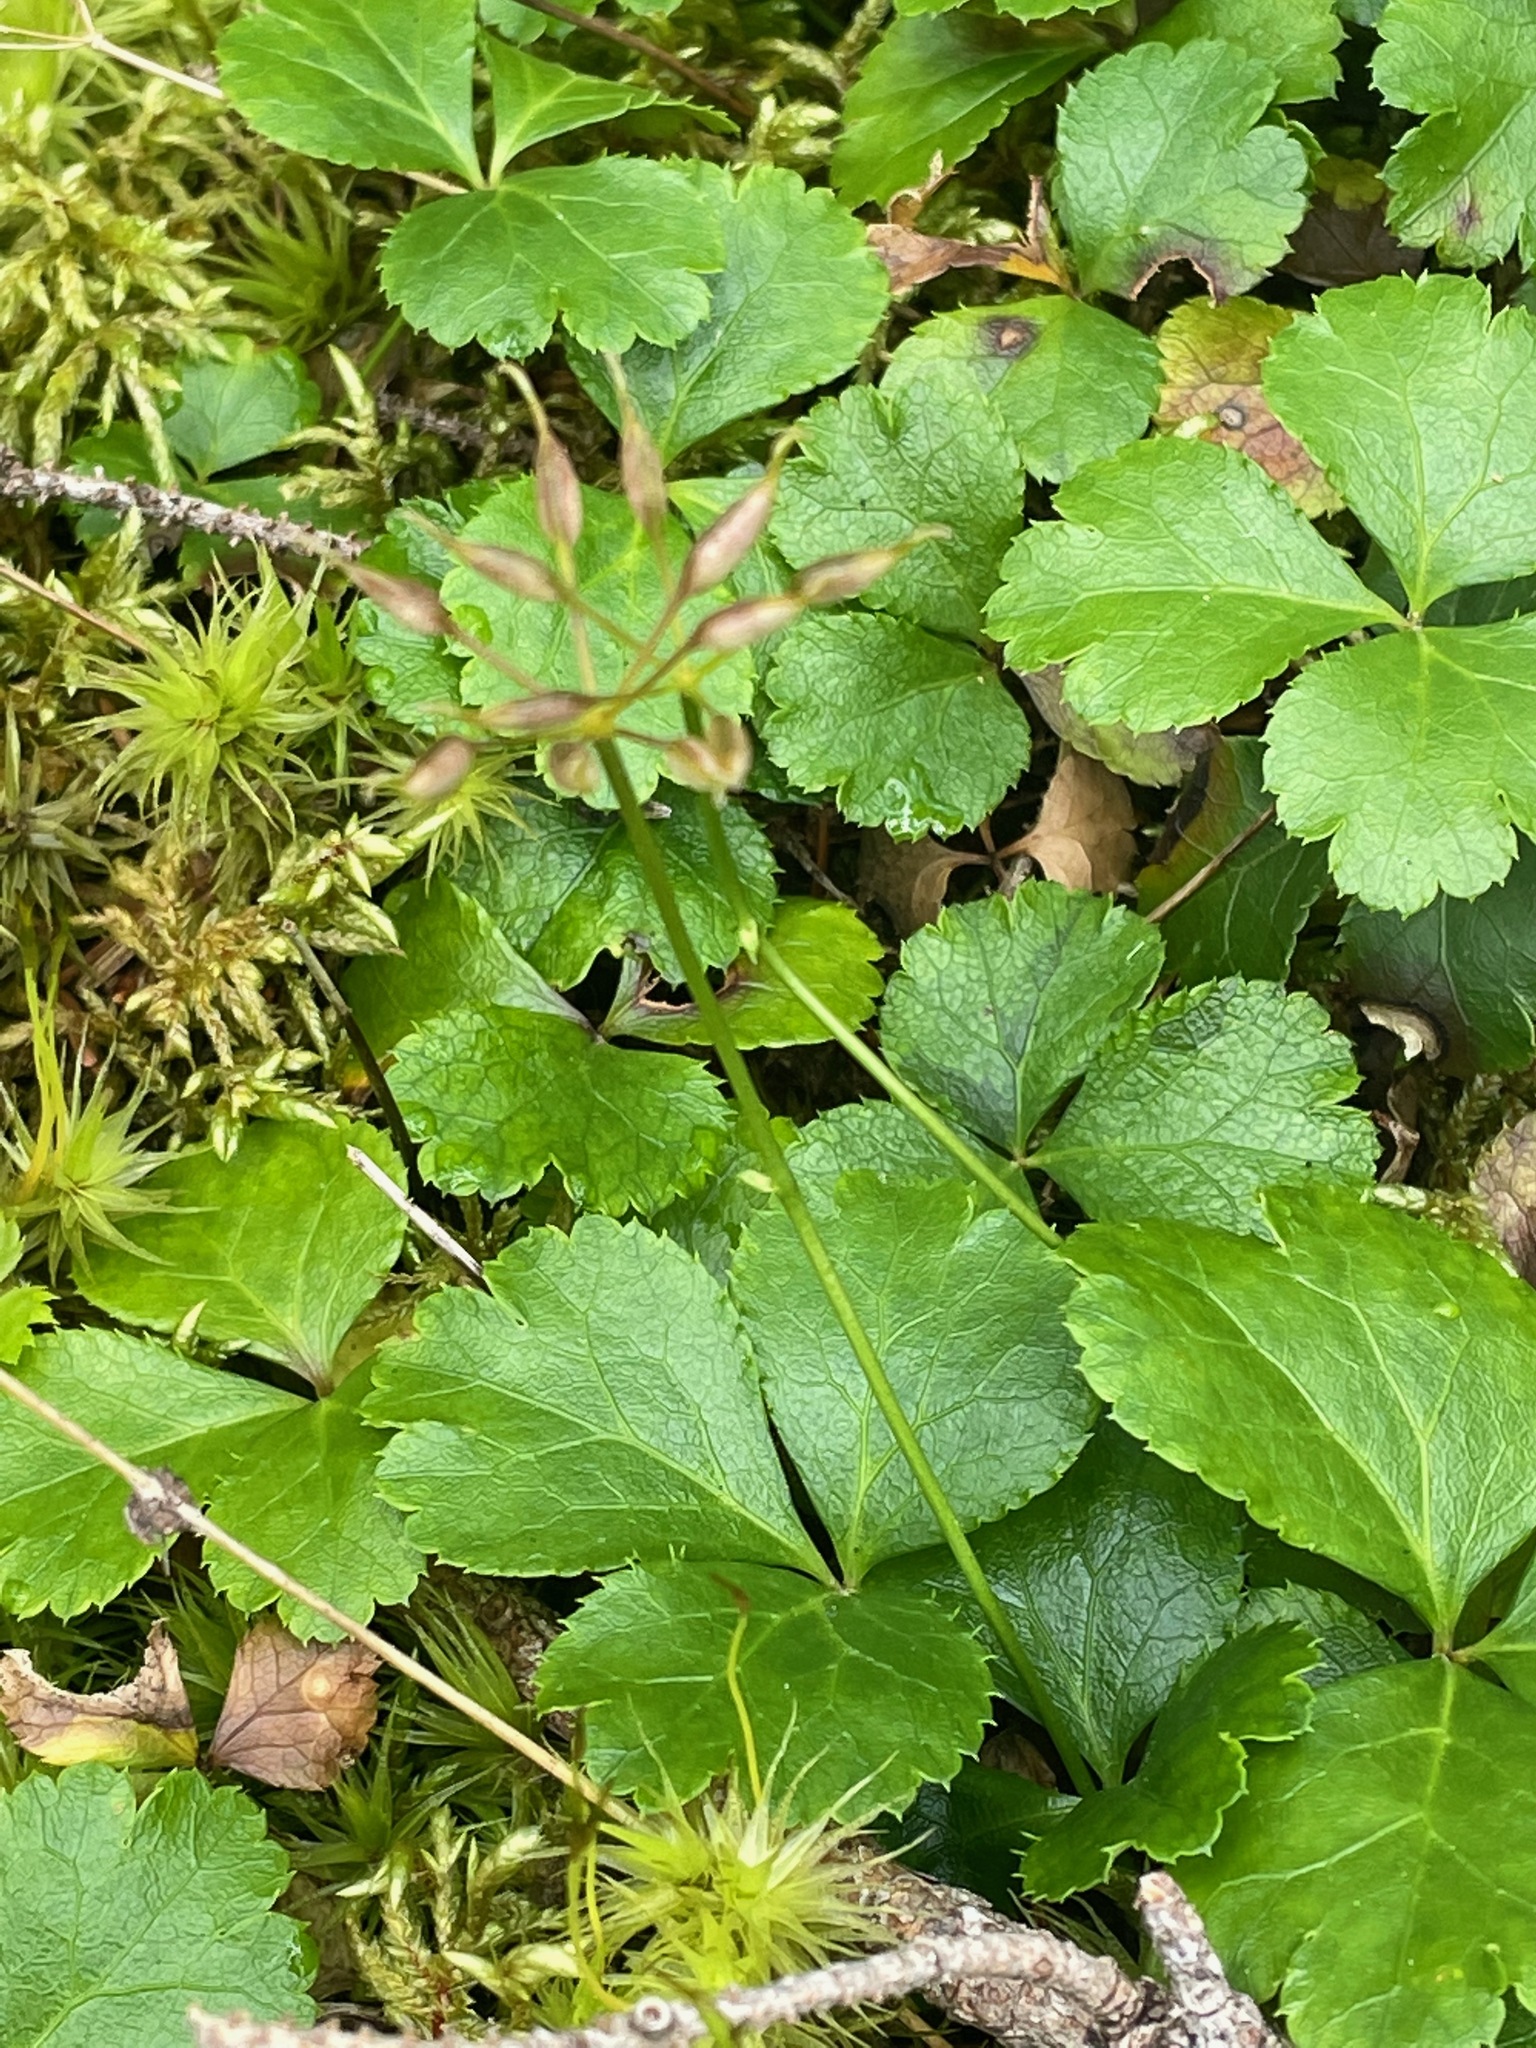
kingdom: Plantae
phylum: Tracheophyta
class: Magnoliopsida
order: Ranunculales
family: Ranunculaceae
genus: Coptis
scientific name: Coptis trifolia
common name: Canker-root
